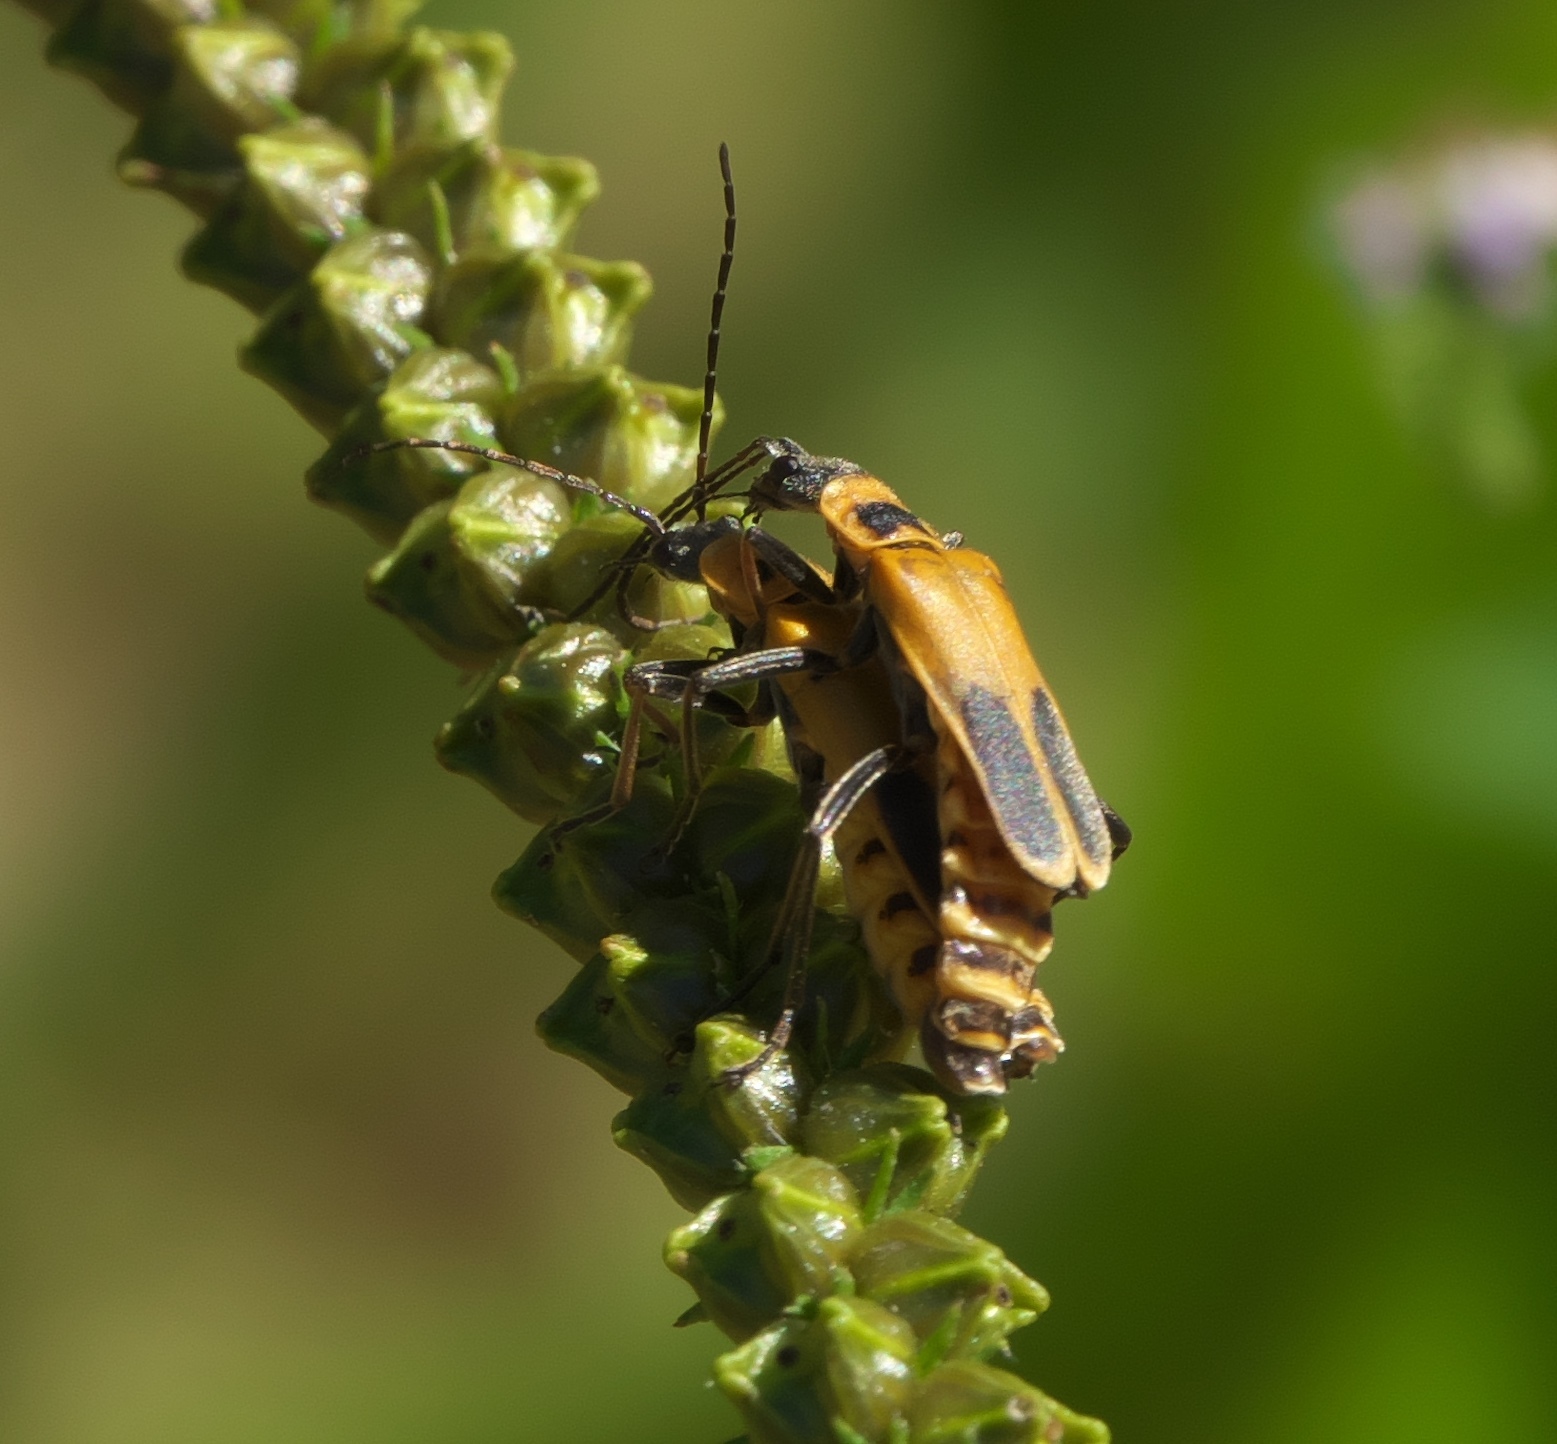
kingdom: Animalia
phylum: Arthropoda
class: Insecta
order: Coleoptera
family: Cantharidae
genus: Chauliognathus
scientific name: Chauliognathus pensylvanicus
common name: Goldenrod soldier beetle
